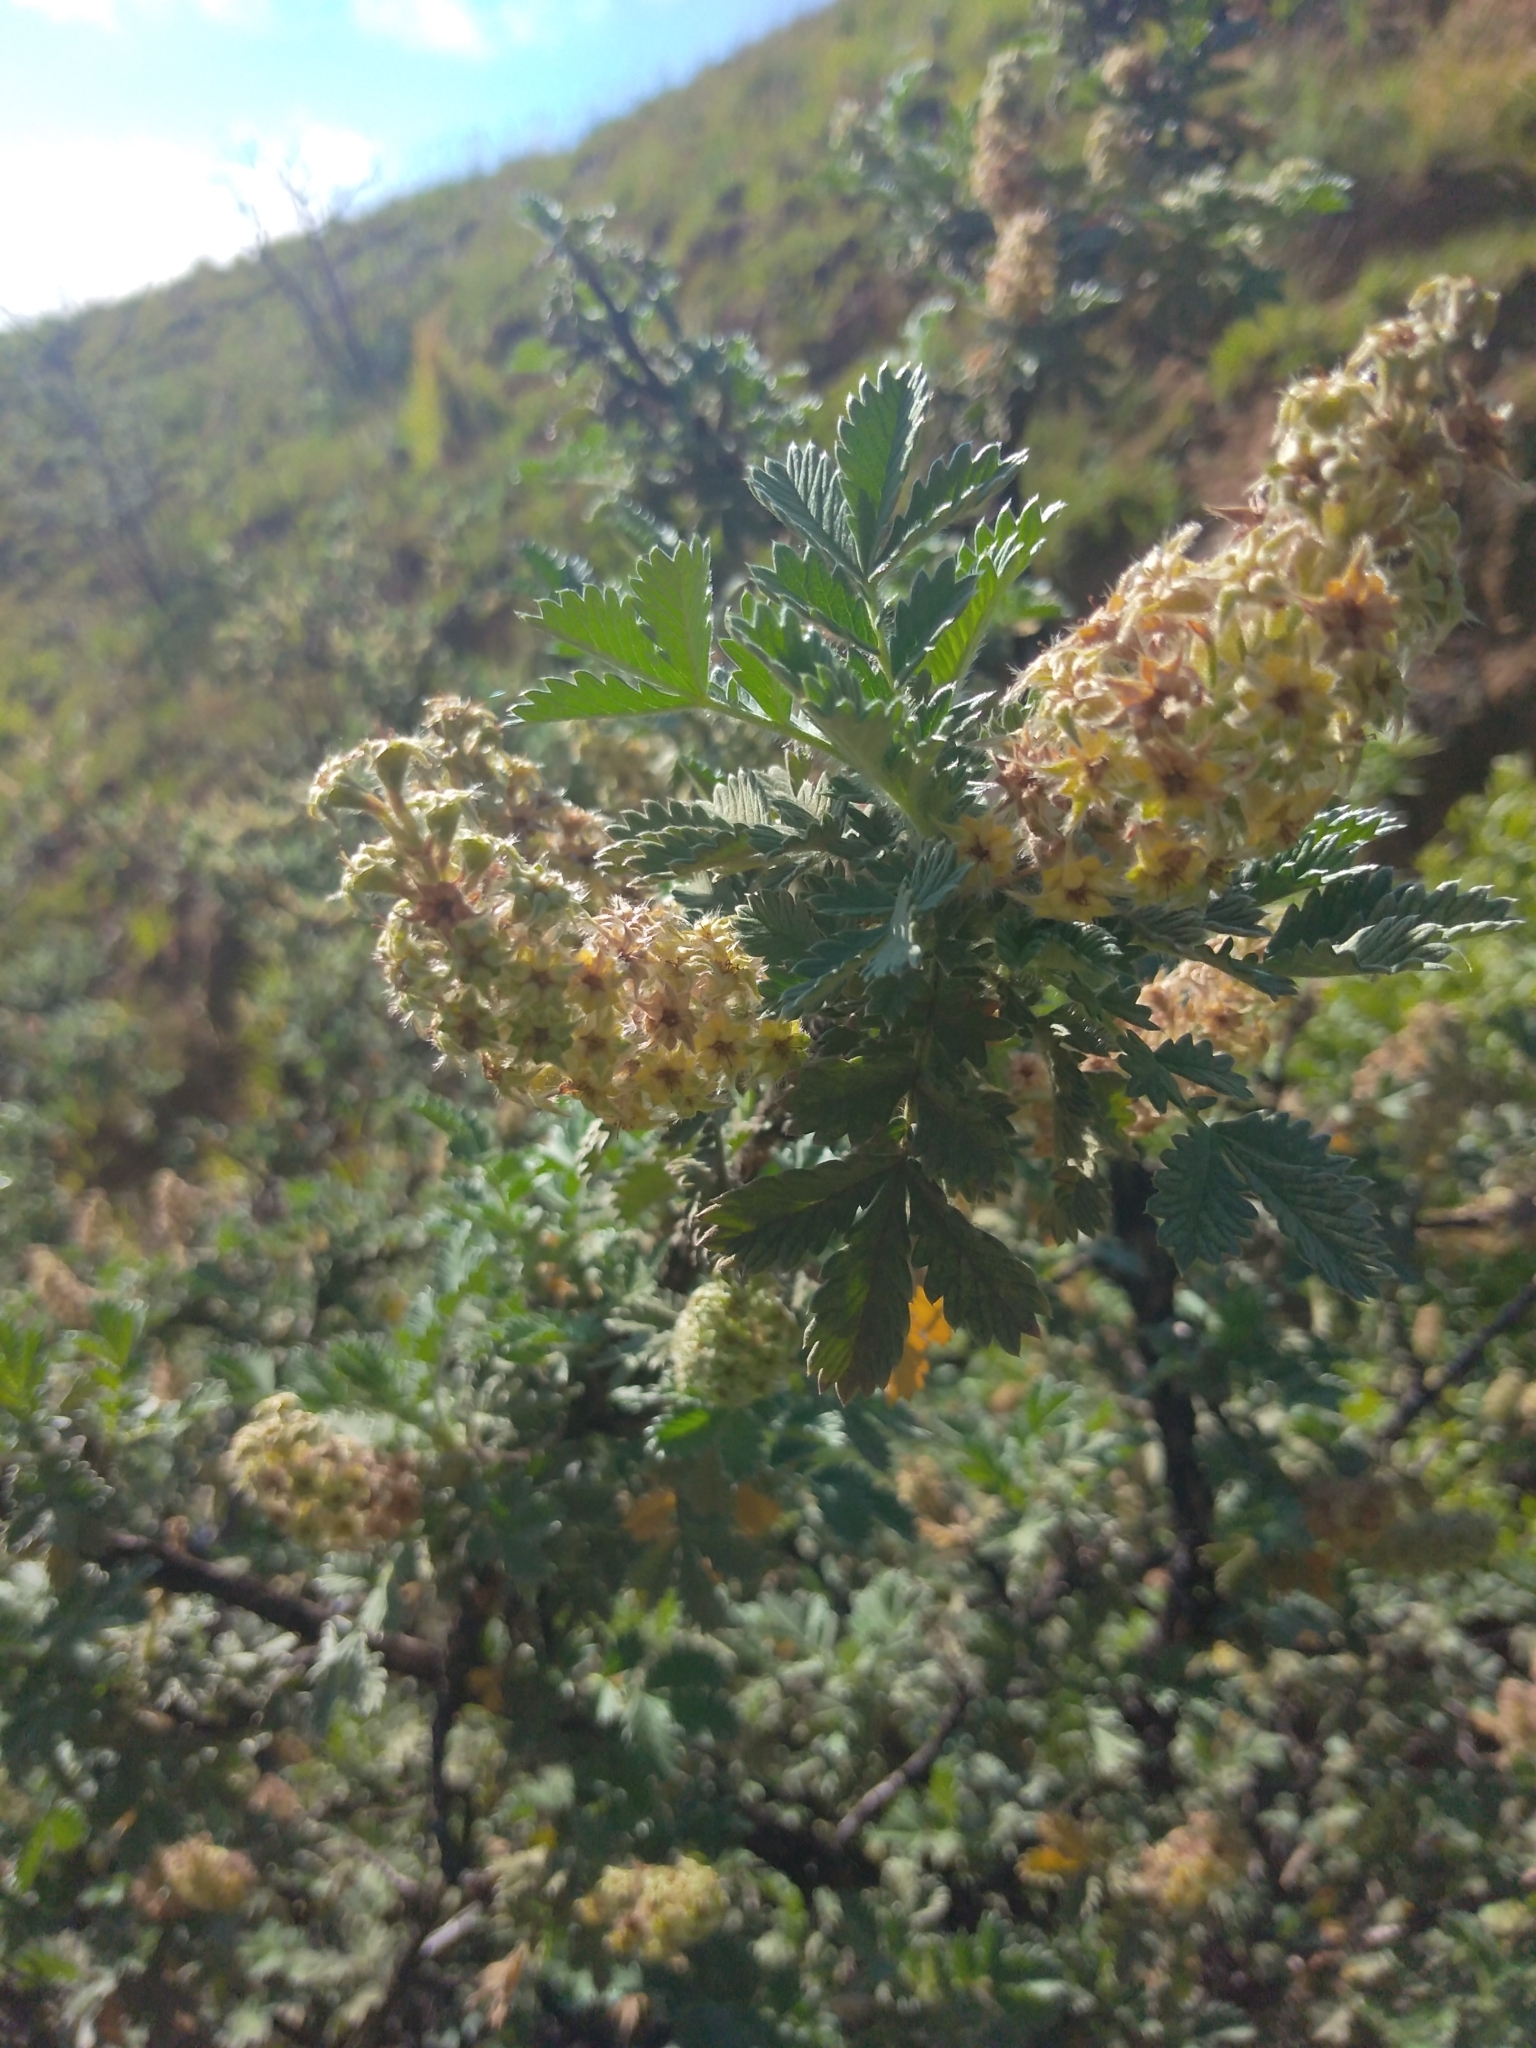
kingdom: Plantae
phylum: Tracheophyta
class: Magnoliopsida
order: Rosales
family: Rosaceae
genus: Leucosidea
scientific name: Leucosidea sericea
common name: Oldwood
